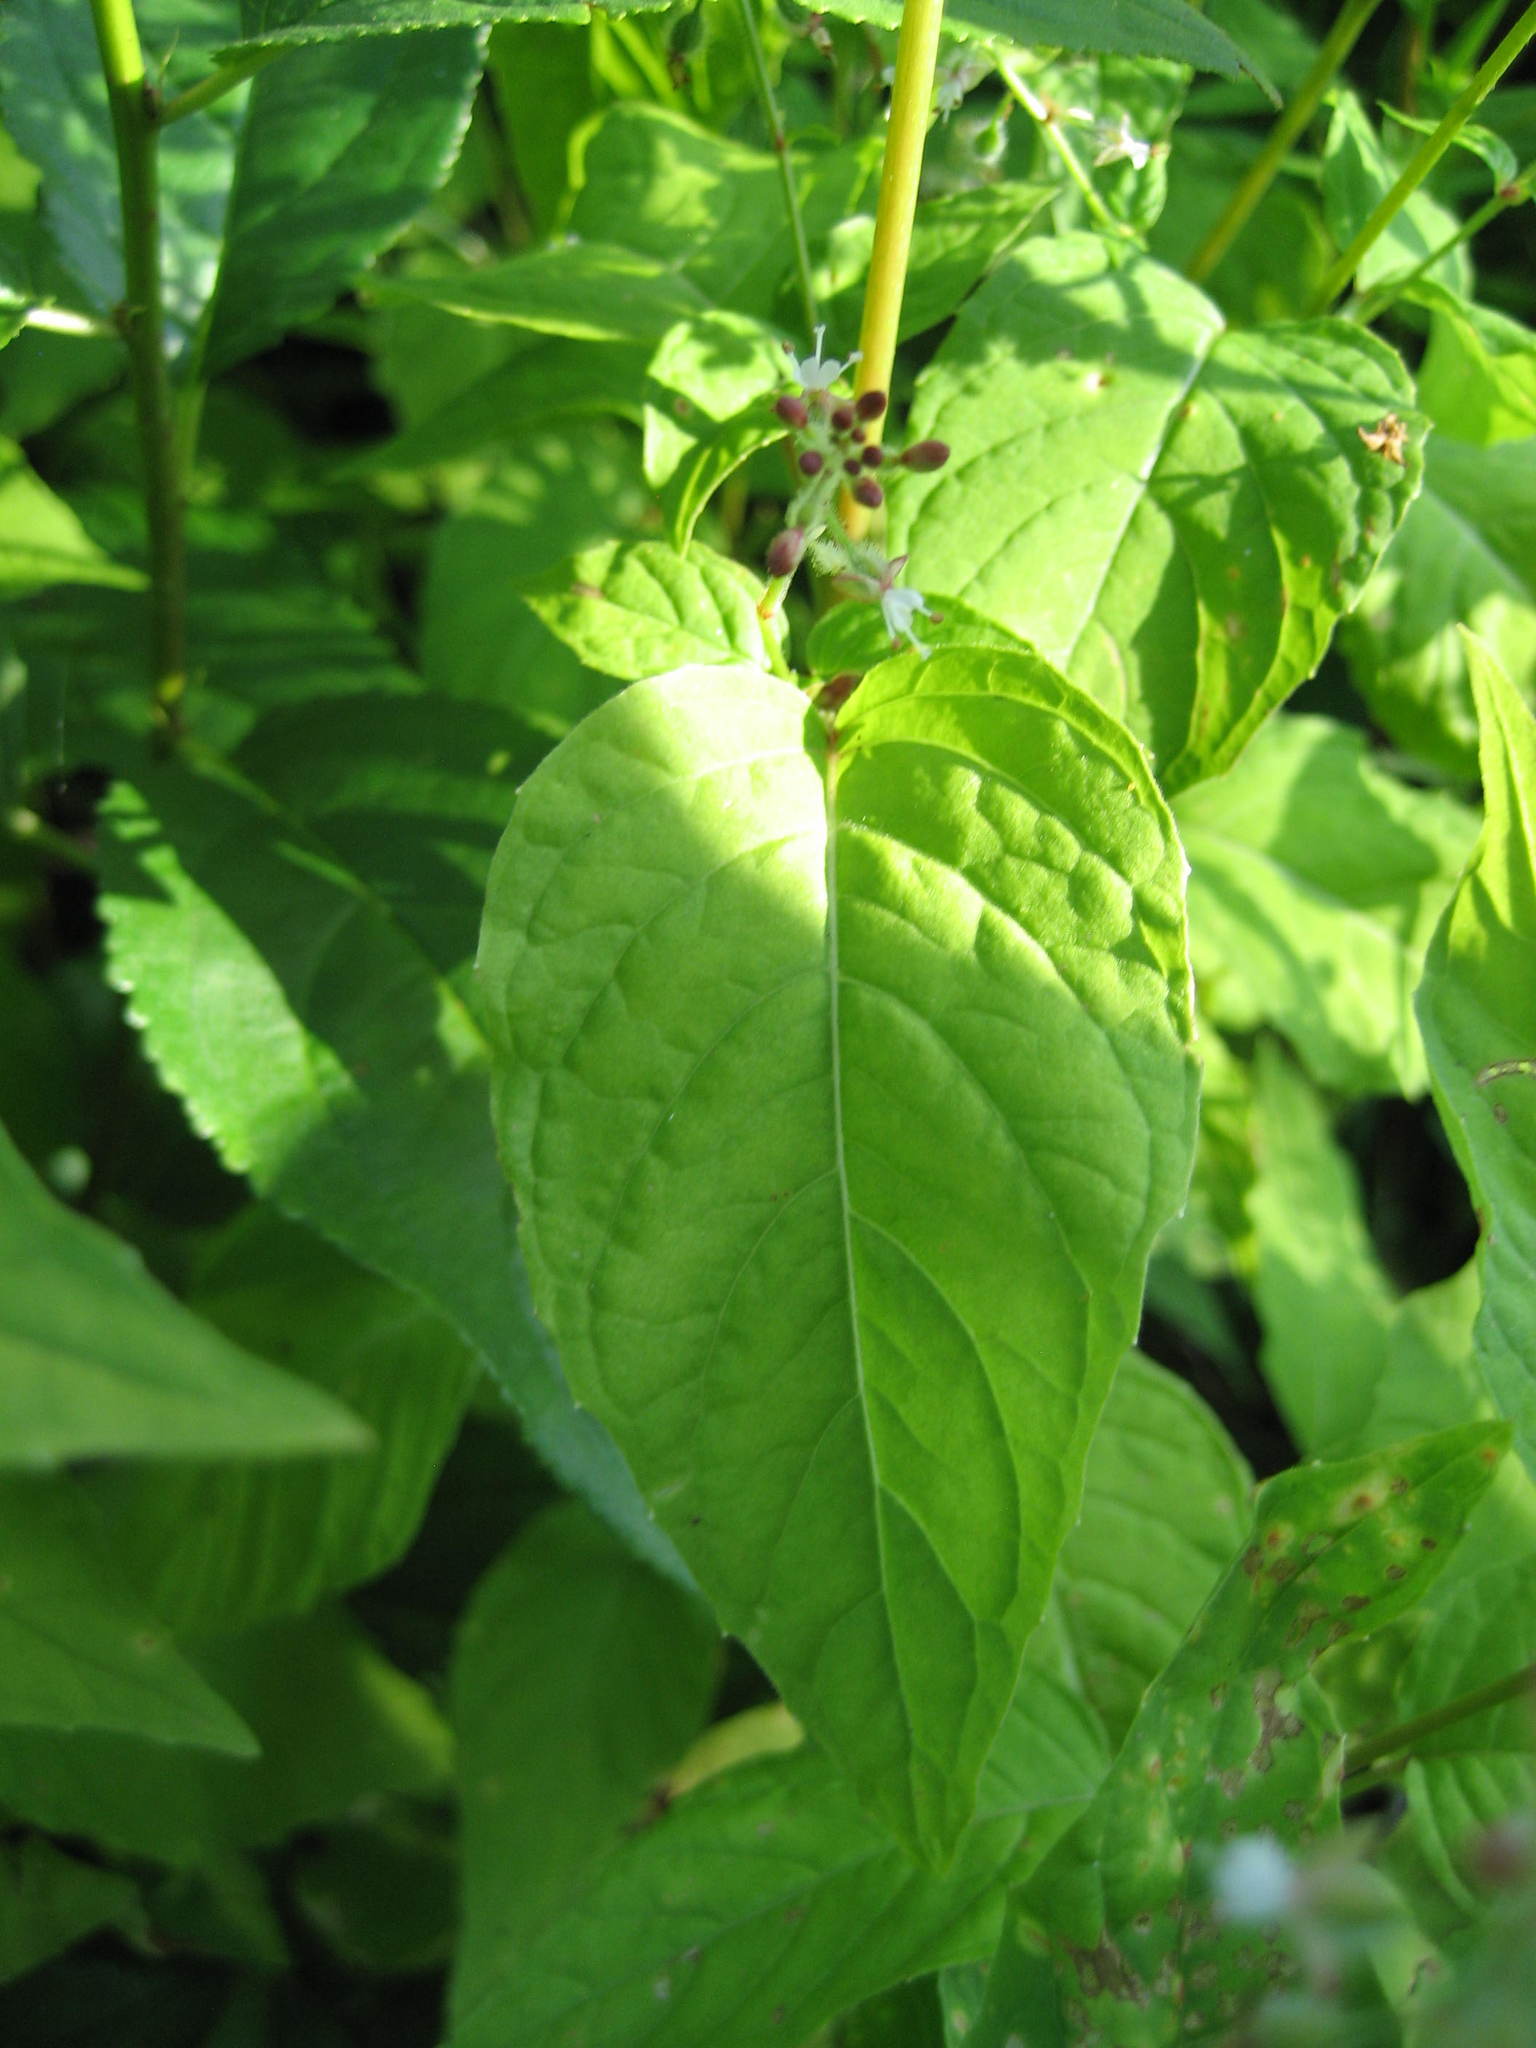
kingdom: Plantae
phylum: Tracheophyta
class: Magnoliopsida
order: Myrtales
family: Onagraceae
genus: Circaea
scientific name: Circaea canadensis
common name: Broad-leaved enchanter's nightshade
